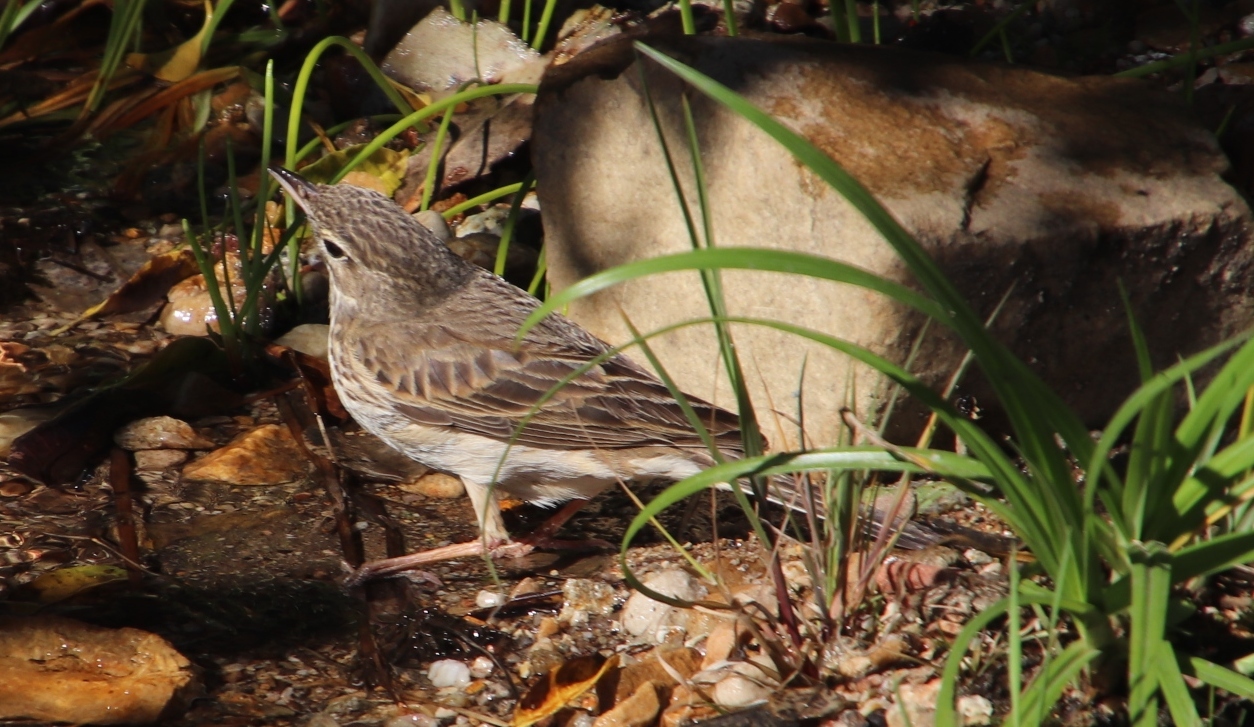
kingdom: Animalia
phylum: Chordata
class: Aves
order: Passeriformes
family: Motacillidae
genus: Anthus
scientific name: Anthus cinnamomeus
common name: African pipit
